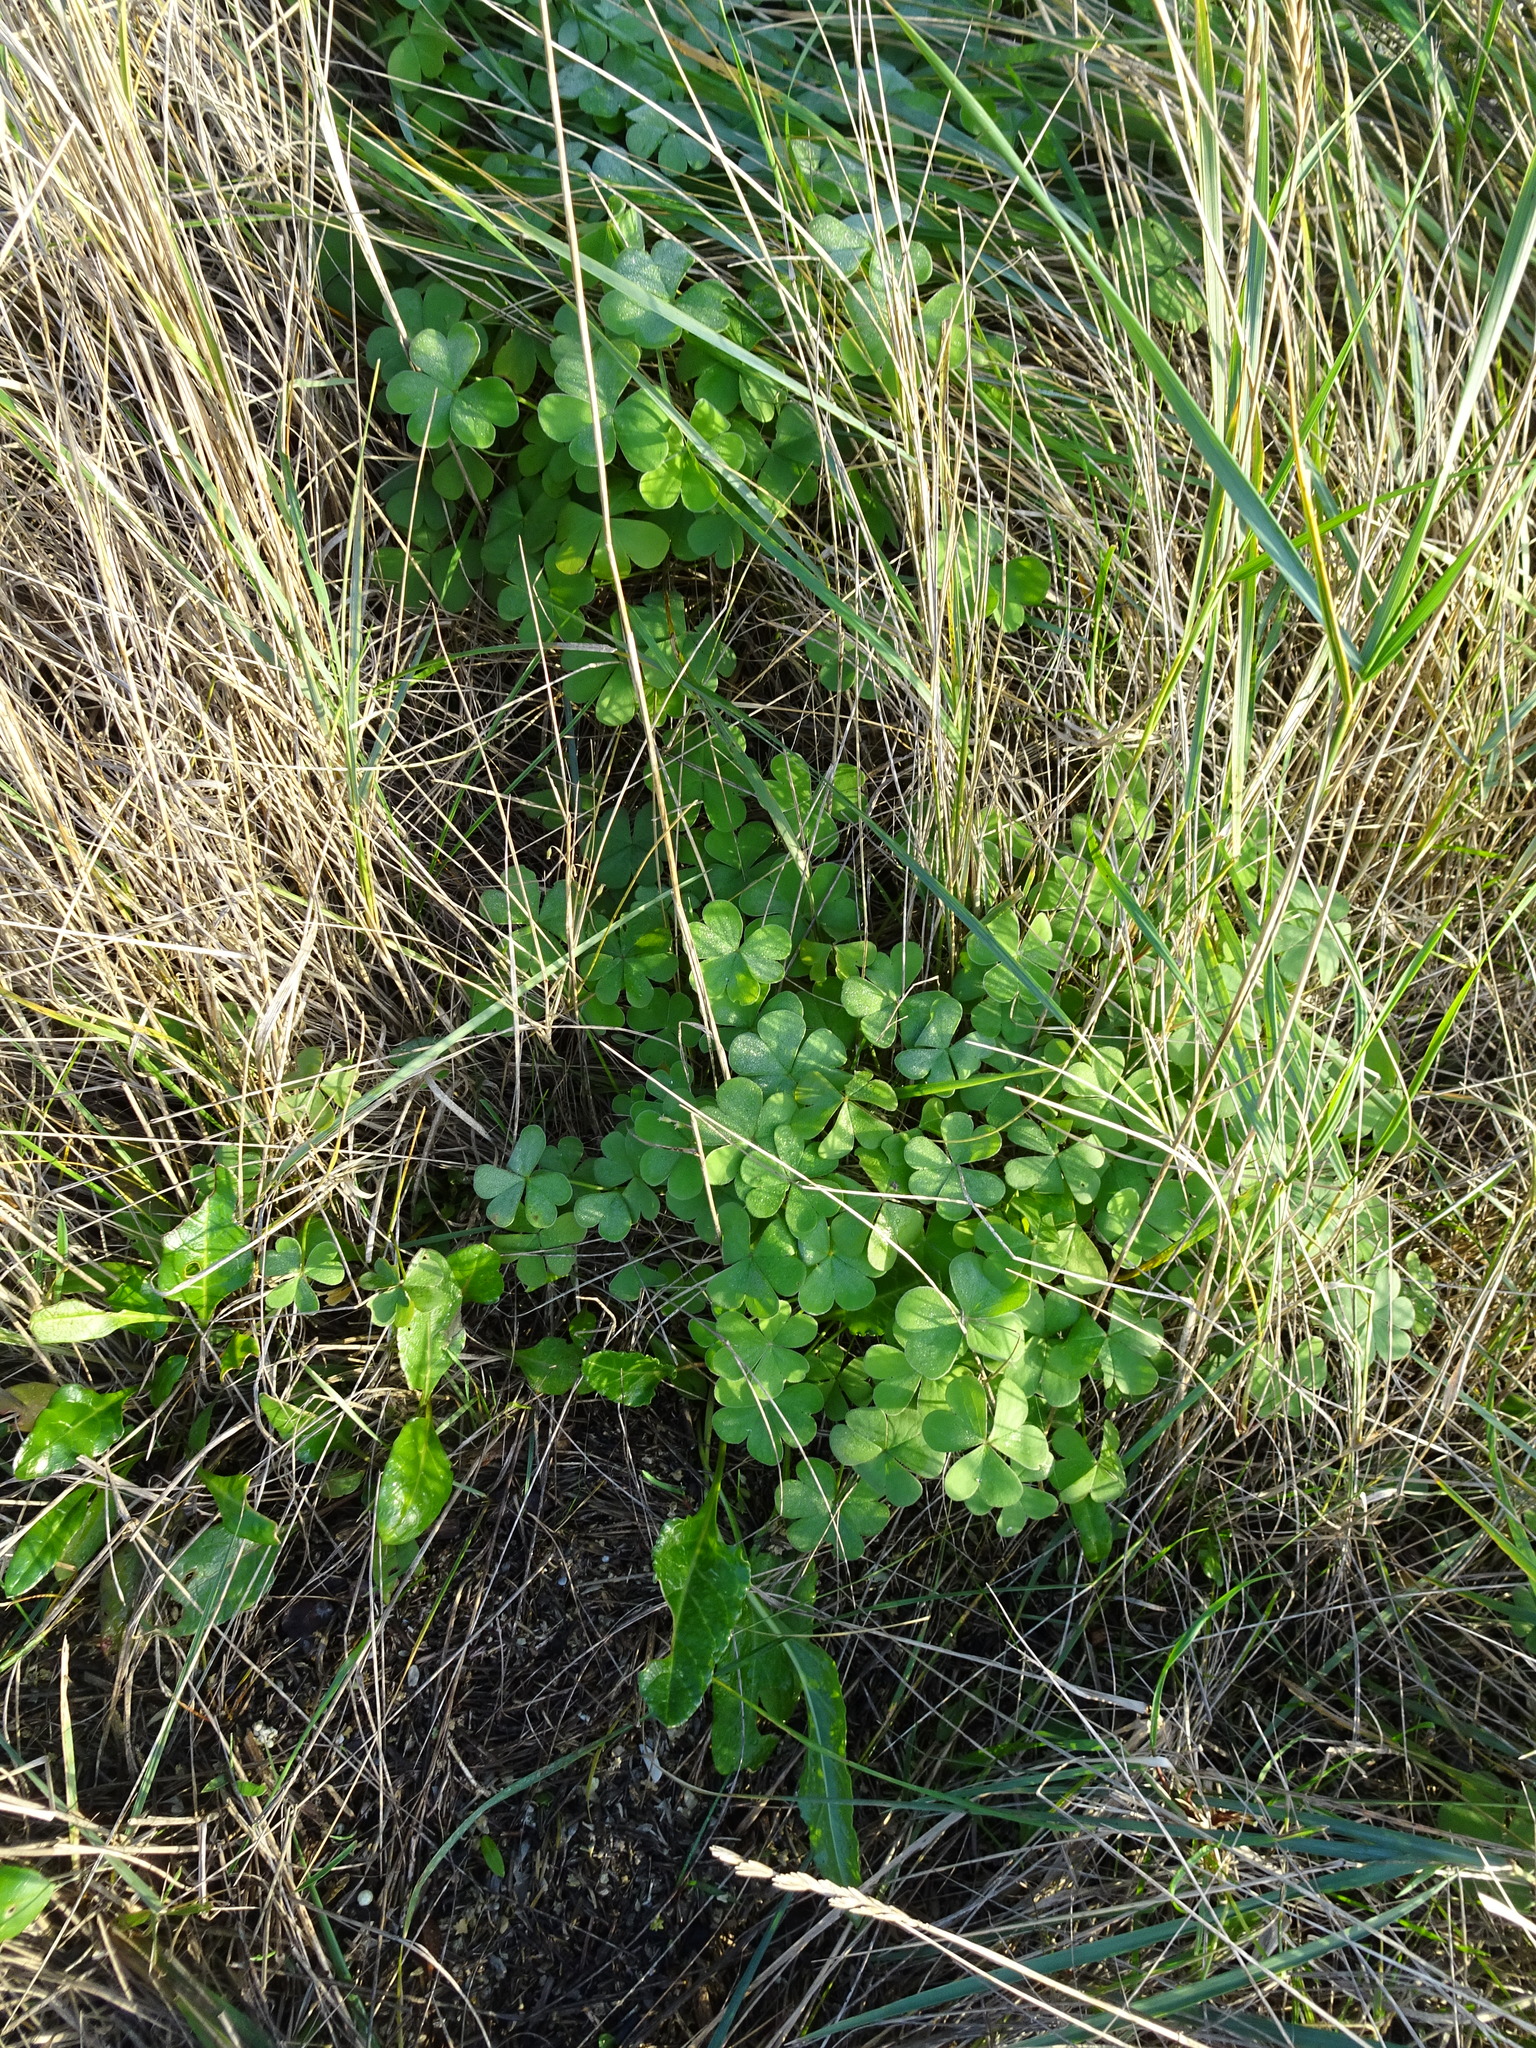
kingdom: Plantae
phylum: Tracheophyta
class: Magnoliopsida
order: Oxalidales
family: Oxalidaceae
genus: Oxalis
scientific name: Oxalis articulata
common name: Pink-sorrel
